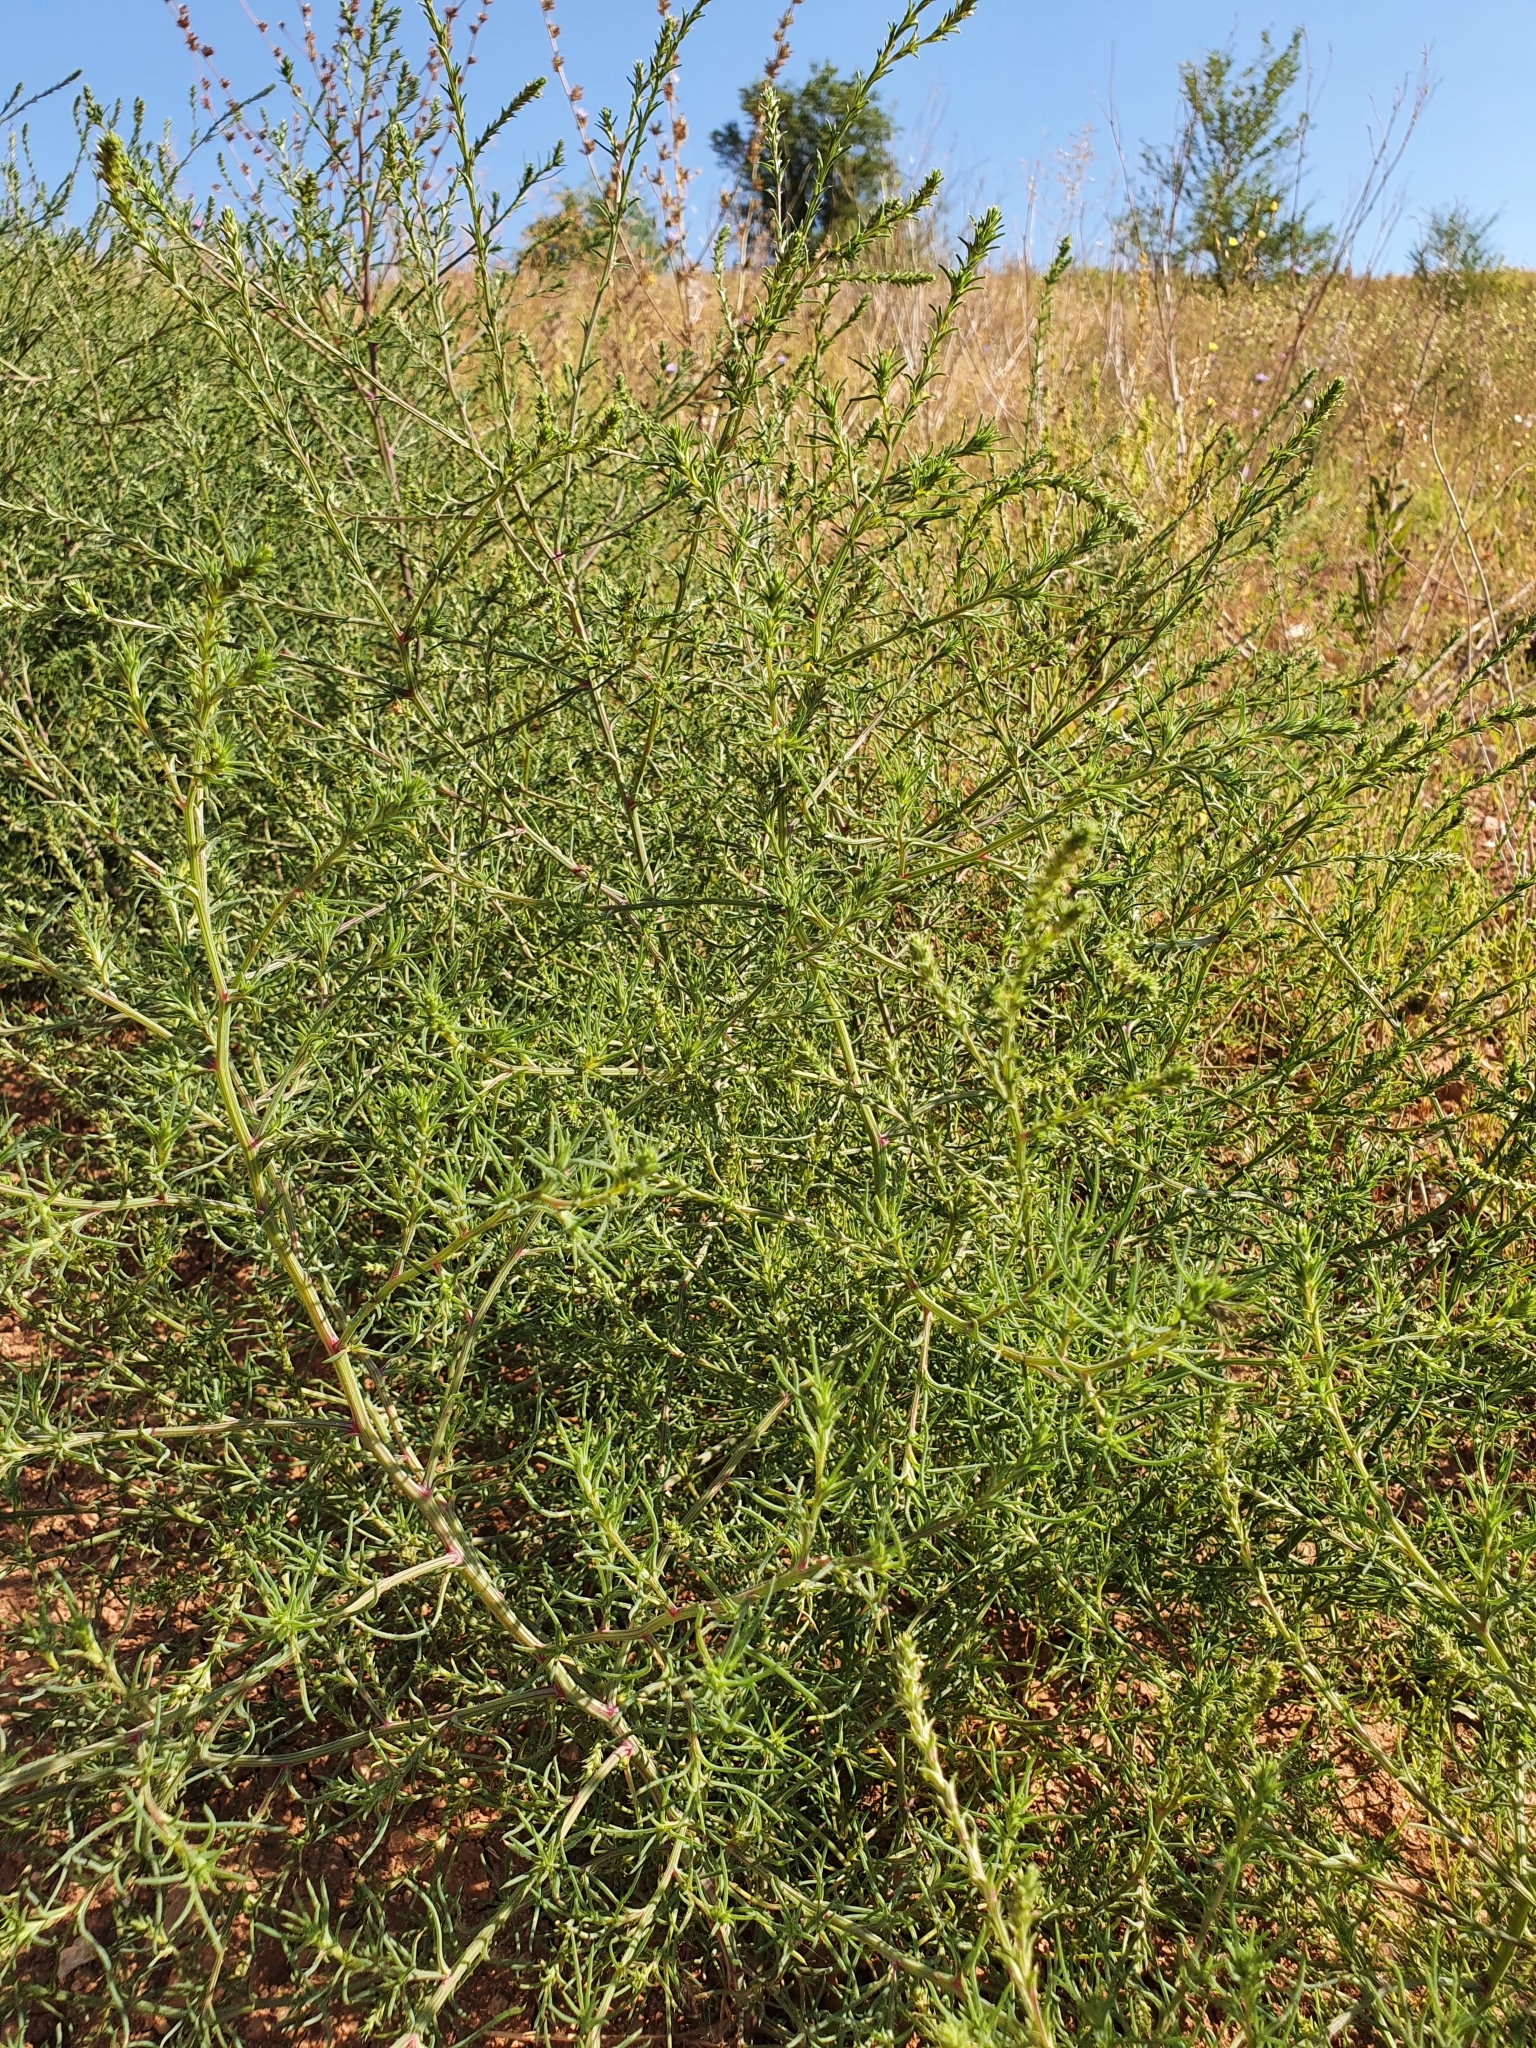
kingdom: Plantae
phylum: Tracheophyta
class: Magnoliopsida
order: Caryophyllales
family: Amaranthaceae
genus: Salsola
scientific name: Salsola collina
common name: Tumbleweed
